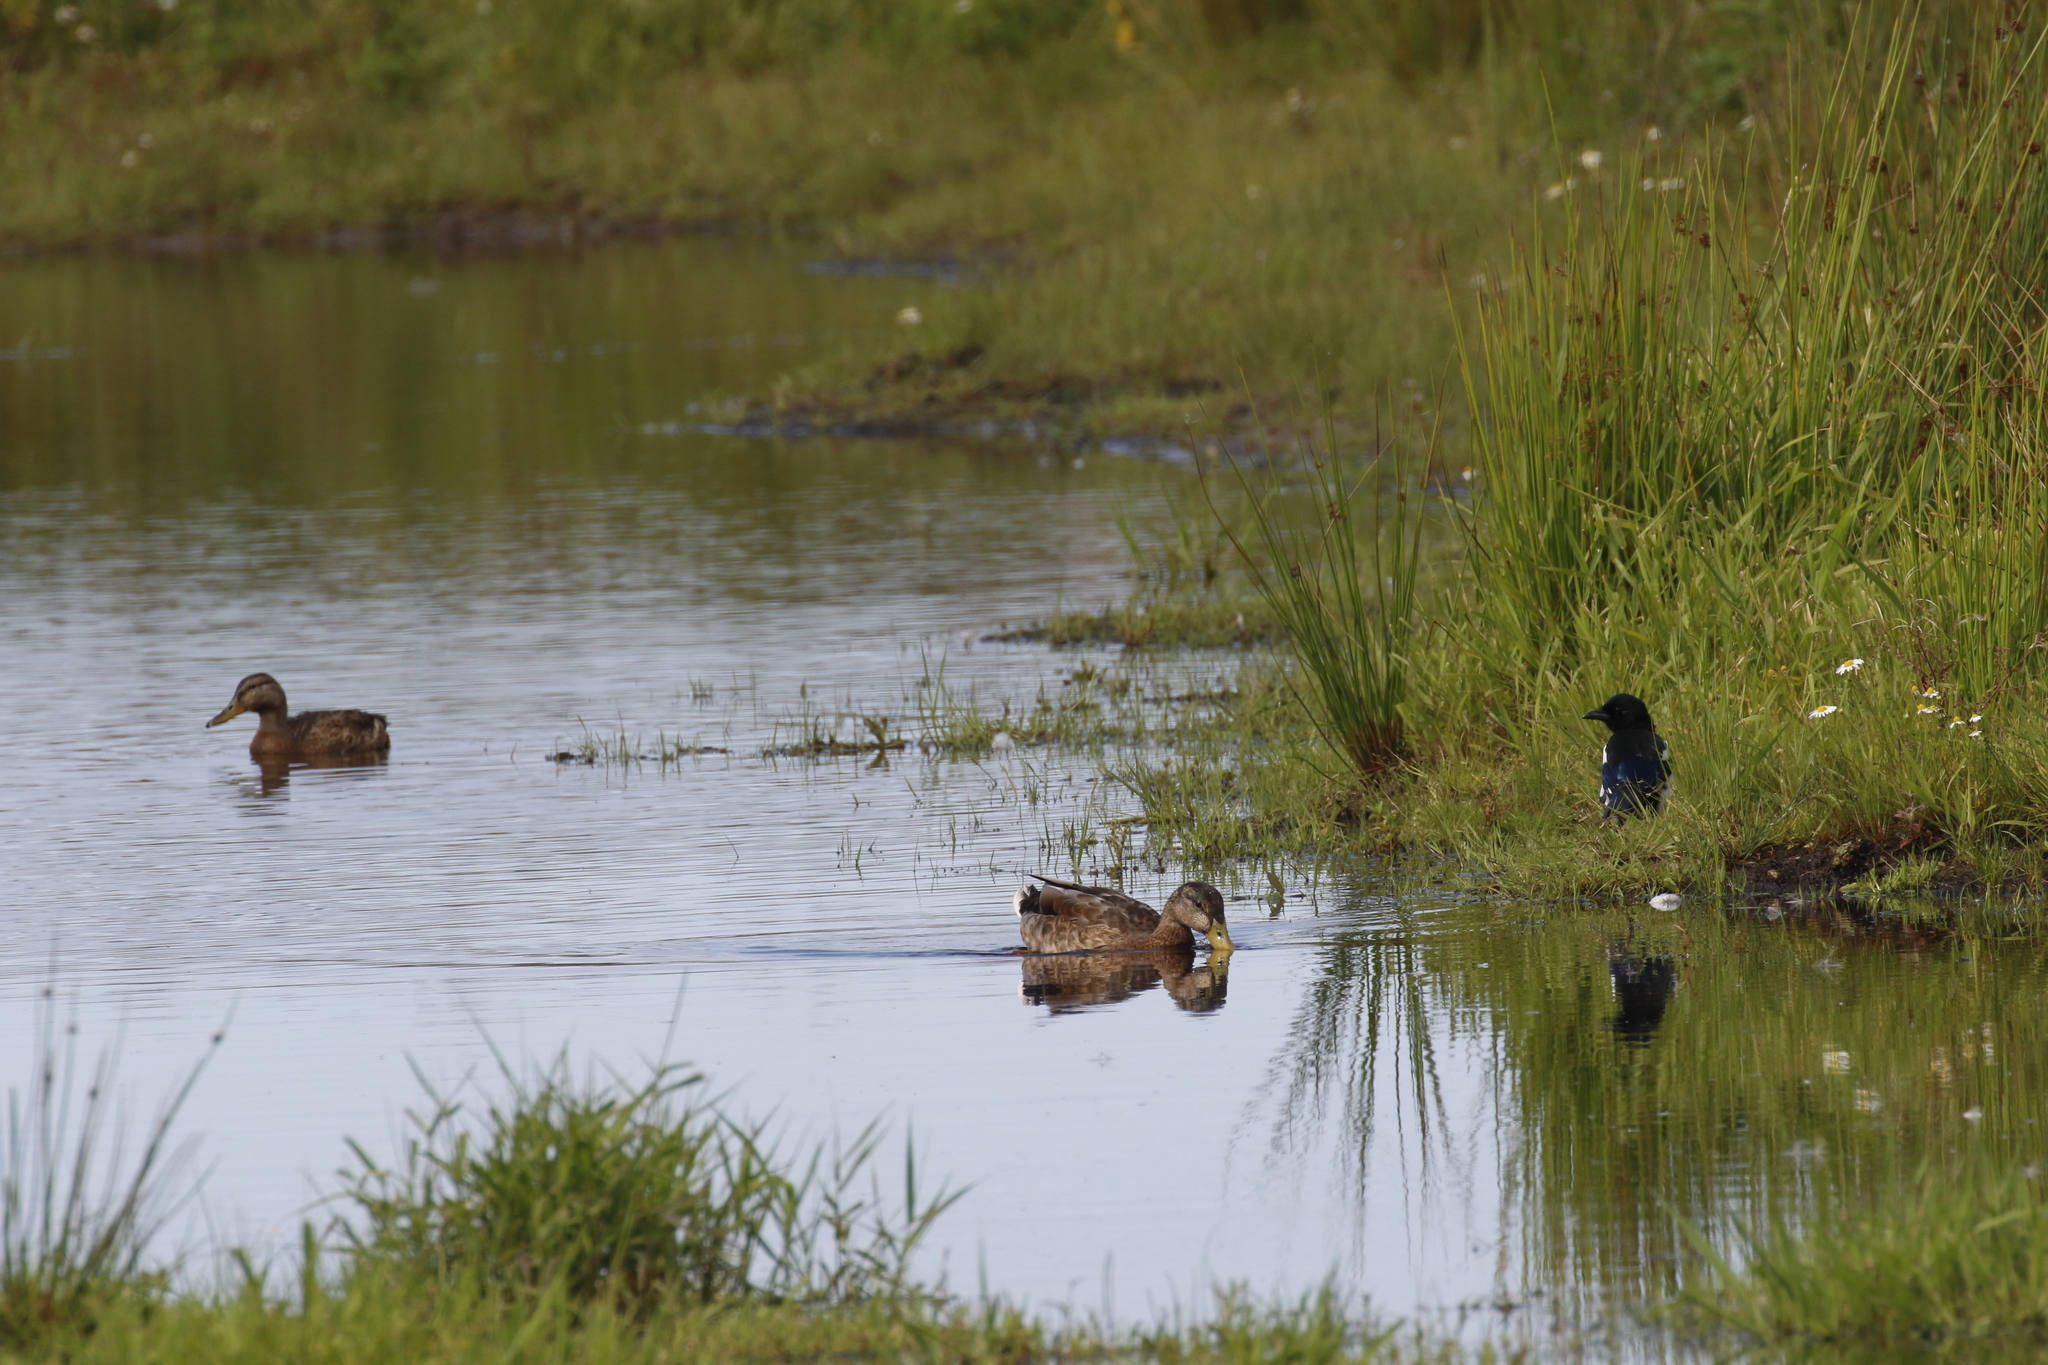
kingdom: Animalia
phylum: Chordata
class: Aves
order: Anseriformes
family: Anatidae
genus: Anas
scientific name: Anas platyrhynchos
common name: Mallard
